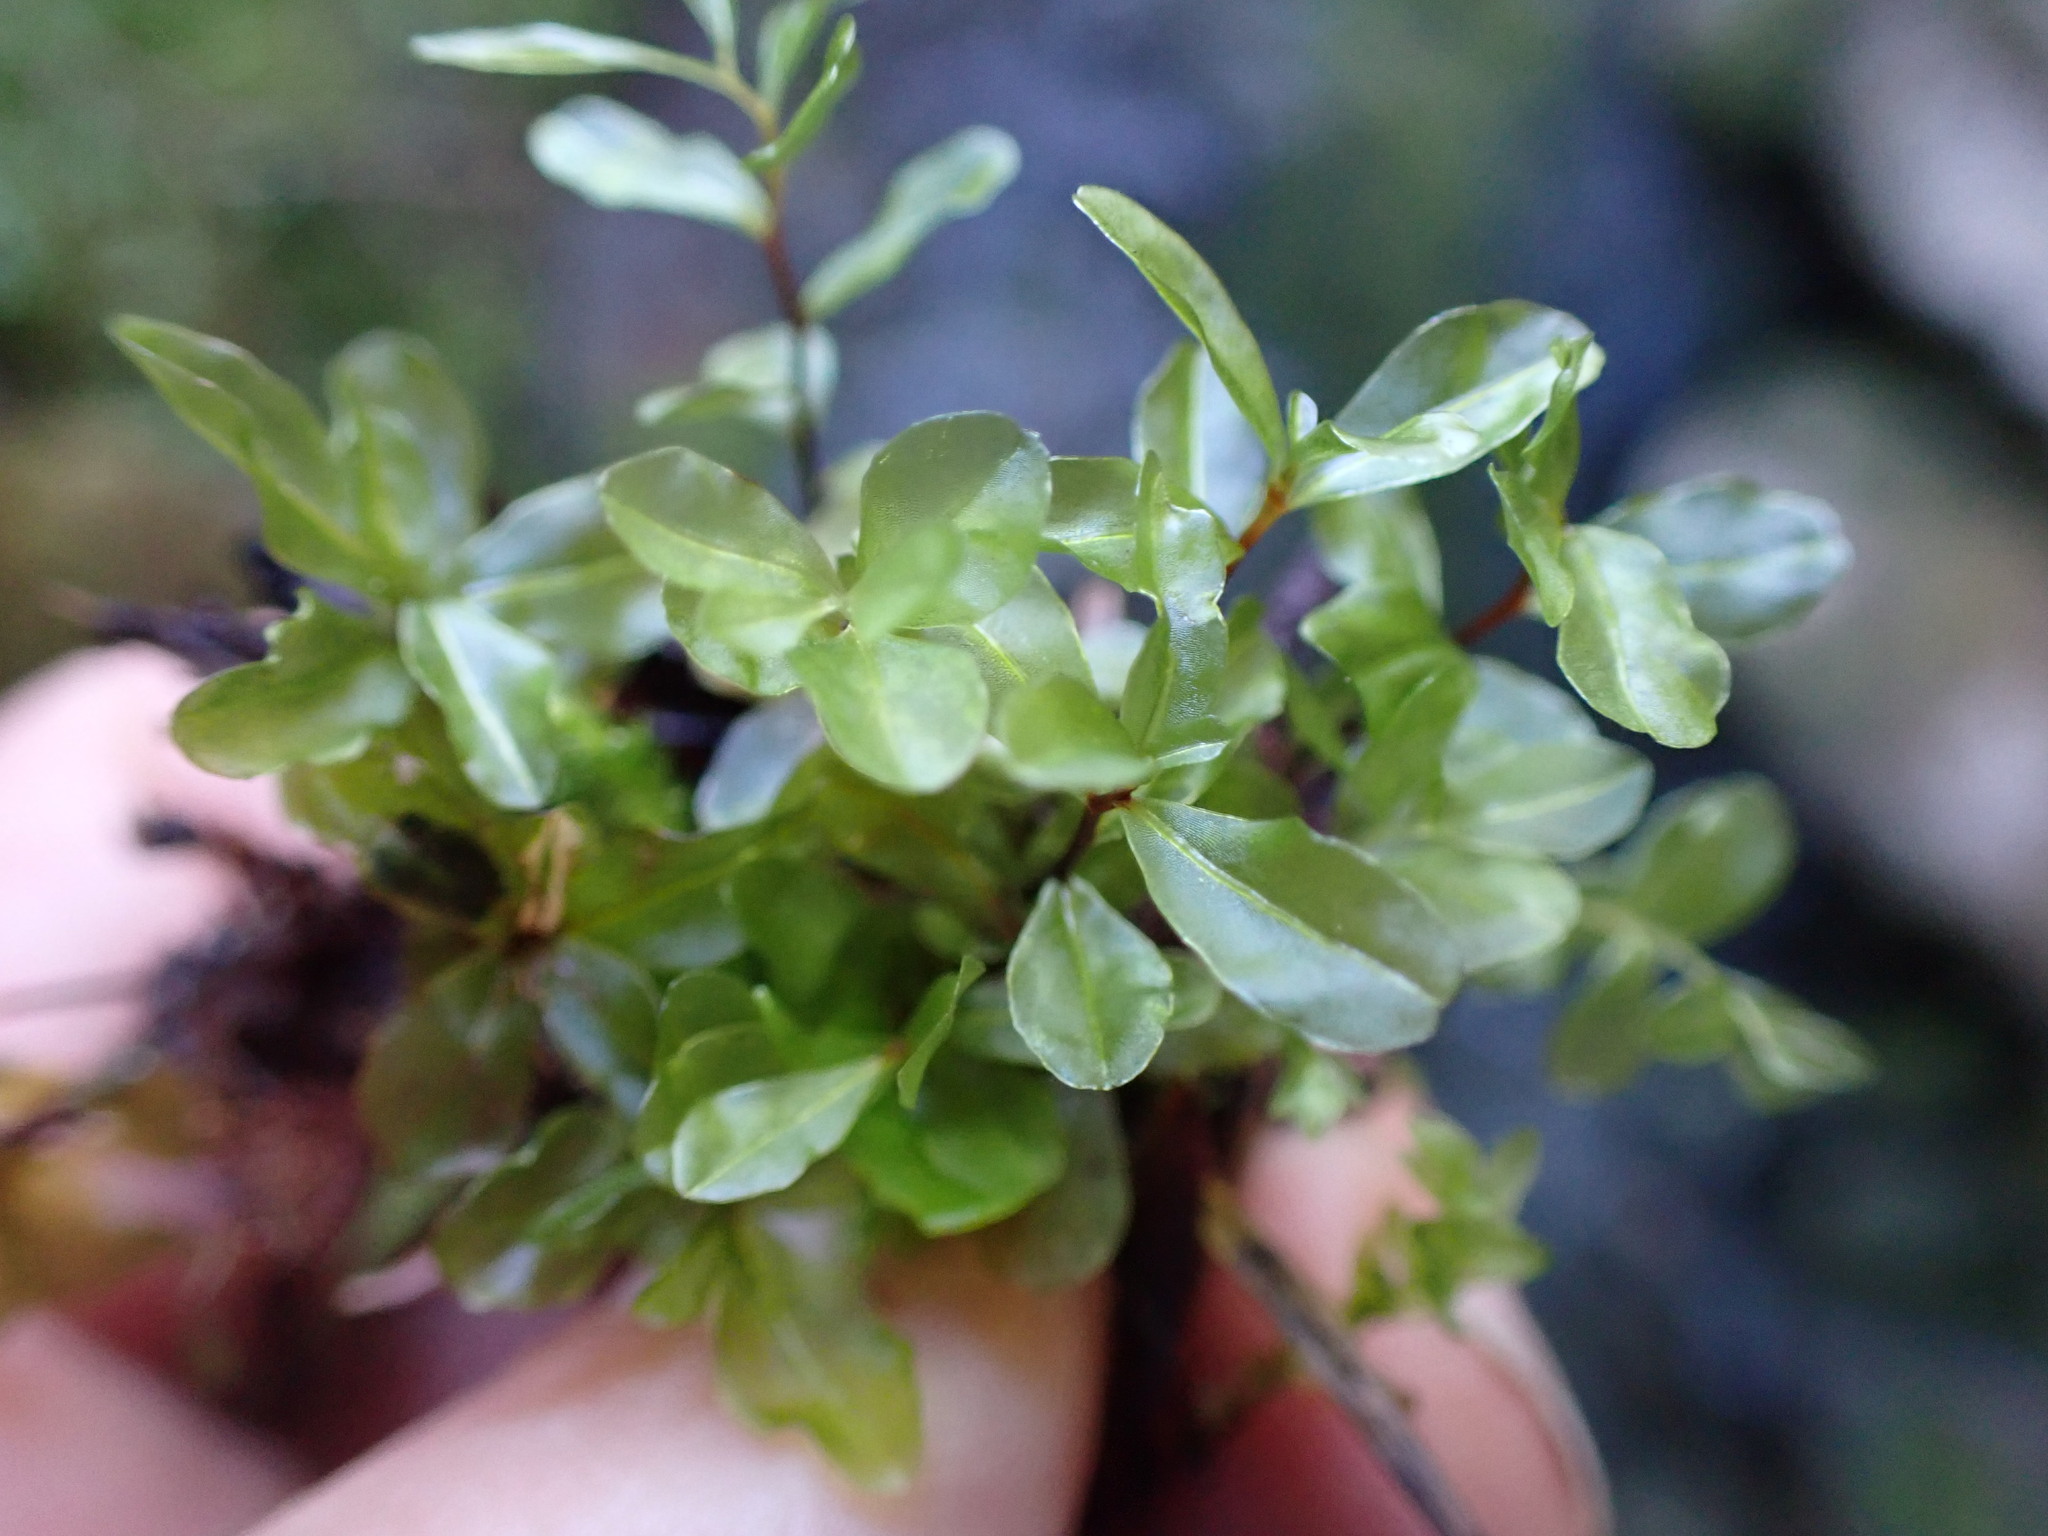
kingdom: Plantae
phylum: Bryophyta
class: Bryopsida
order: Bryales
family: Mniaceae
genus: Rhizomnium
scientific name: Rhizomnium glabrescens
